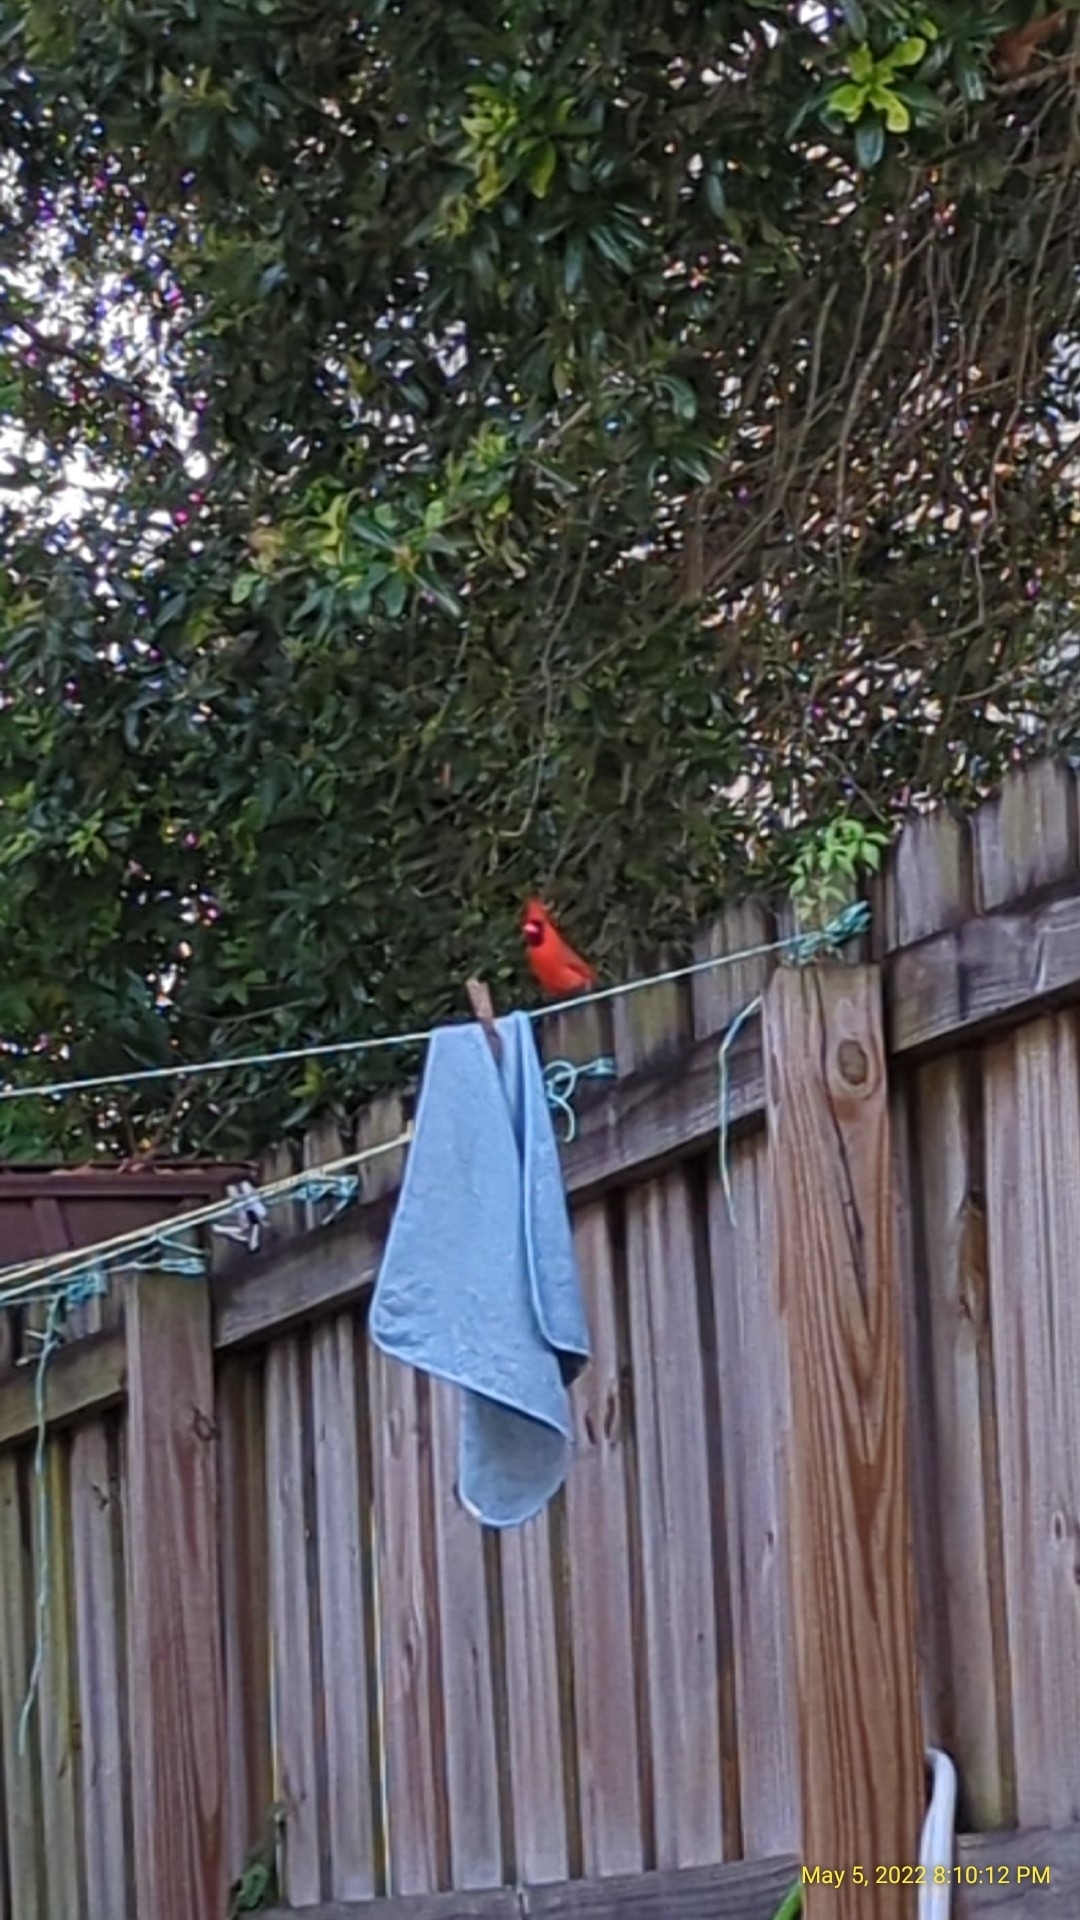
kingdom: Animalia
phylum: Chordata
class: Aves
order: Passeriformes
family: Cardinalidae
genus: Cardinalis
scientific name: Cardinalis cardinalis
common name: Northern cardinal
